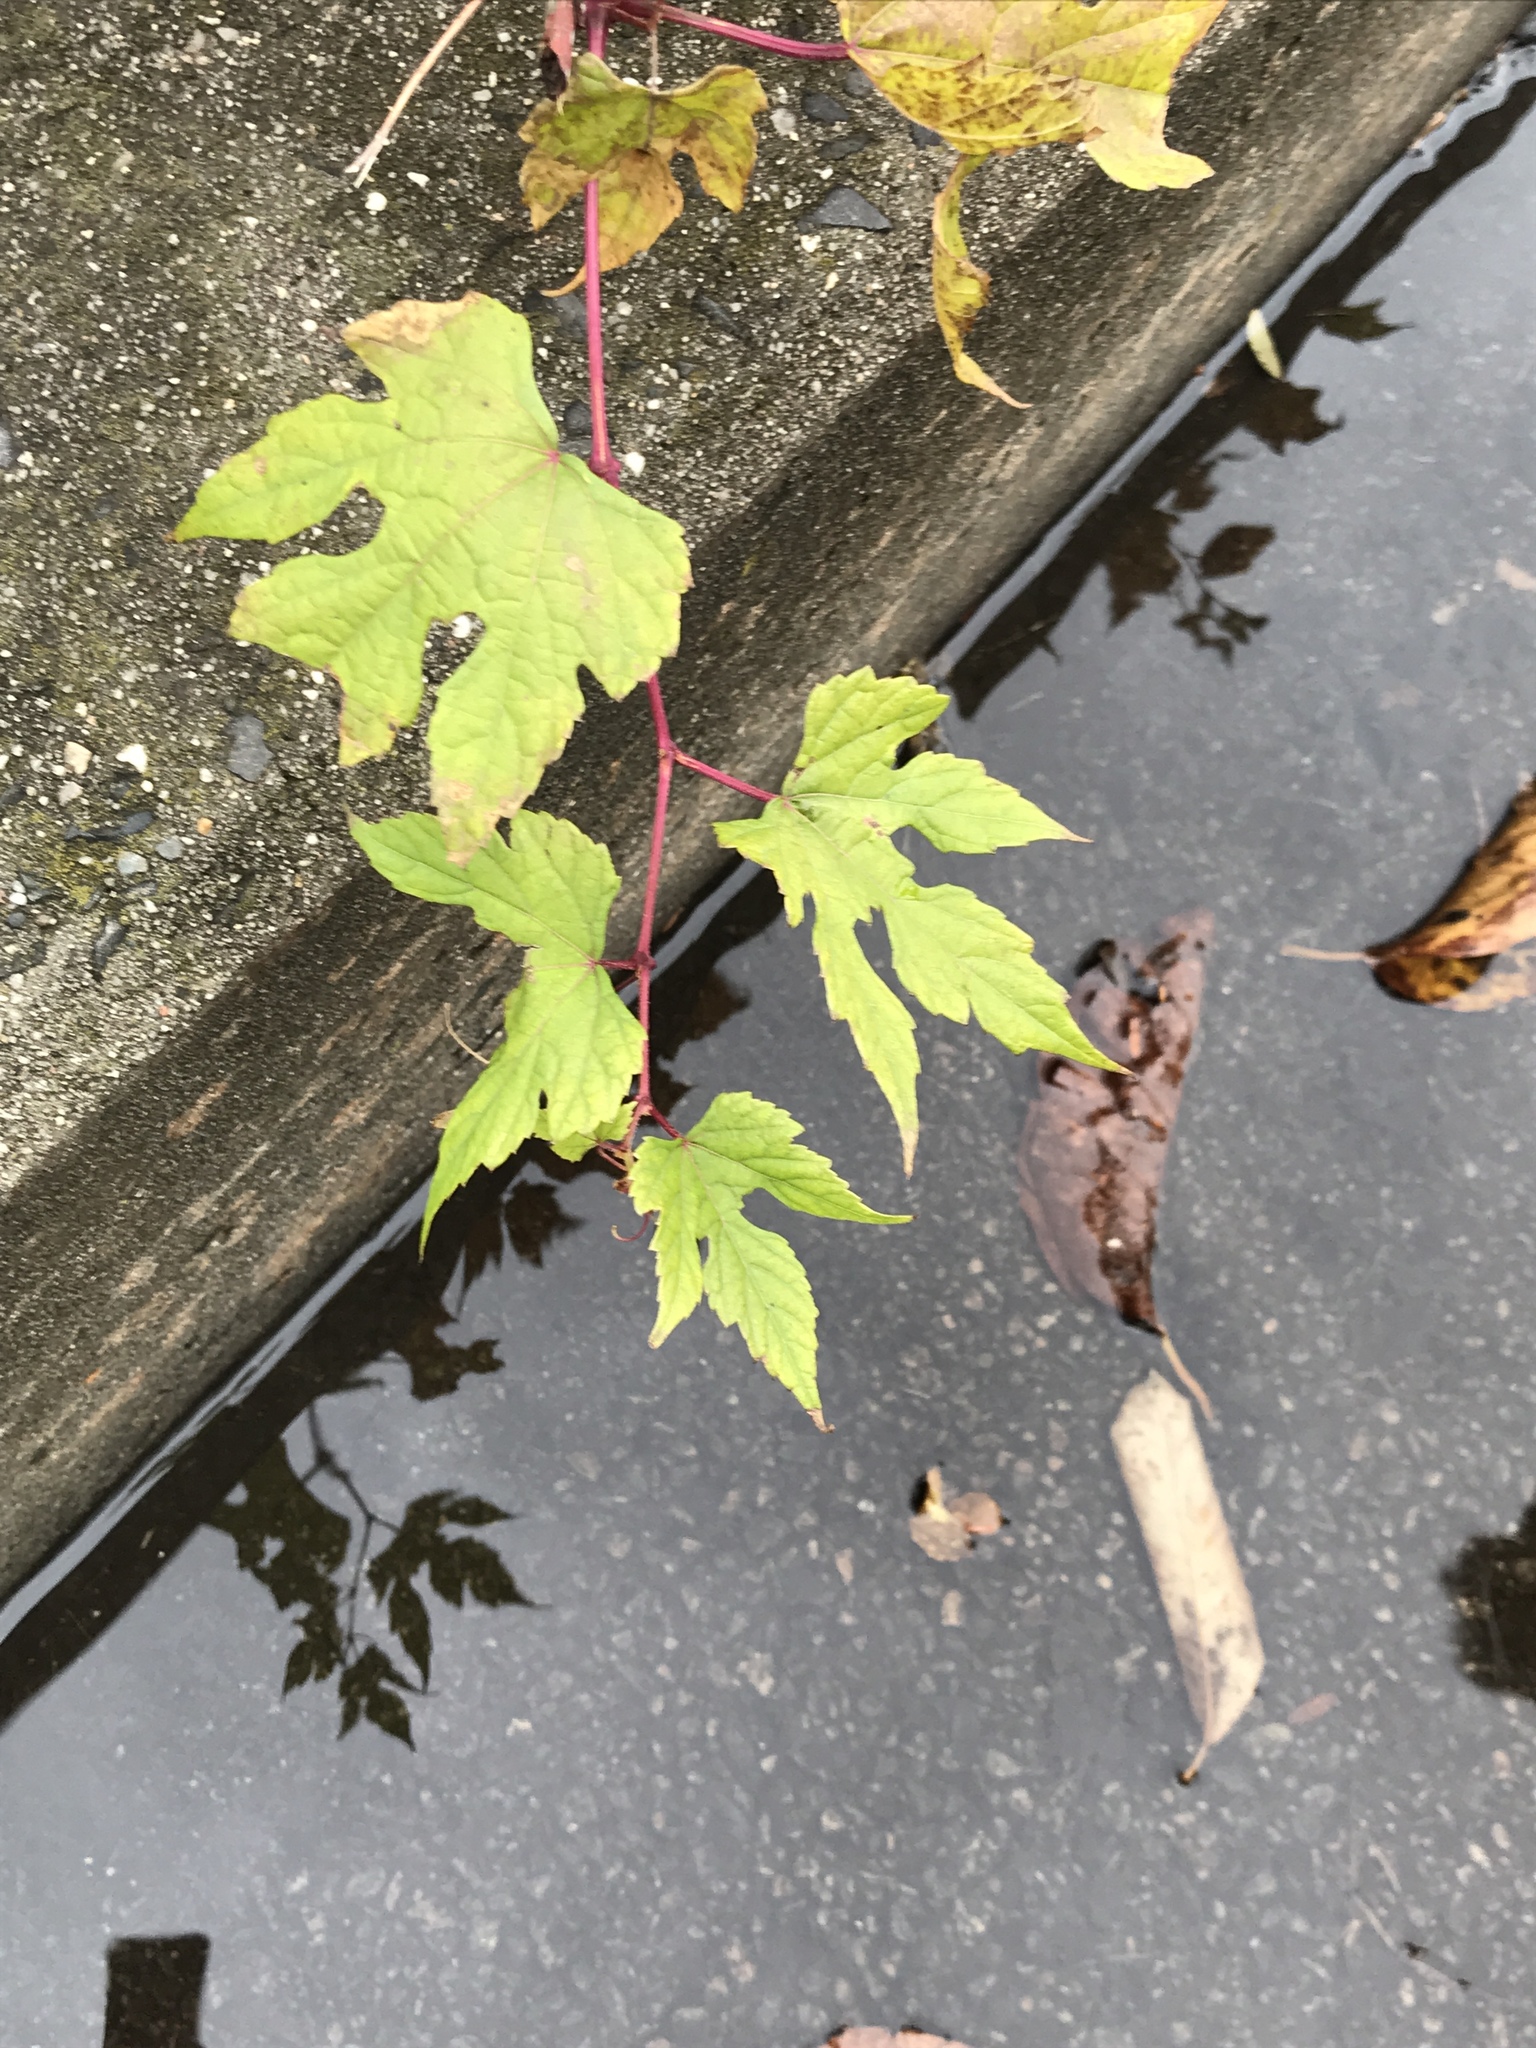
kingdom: Plantae
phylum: Tracheophyta
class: Magnoliopsida
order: Vitales
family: Vitaceae
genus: Ampelopsis
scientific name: Ampelopsis glandulosa
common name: Amur peppervine
